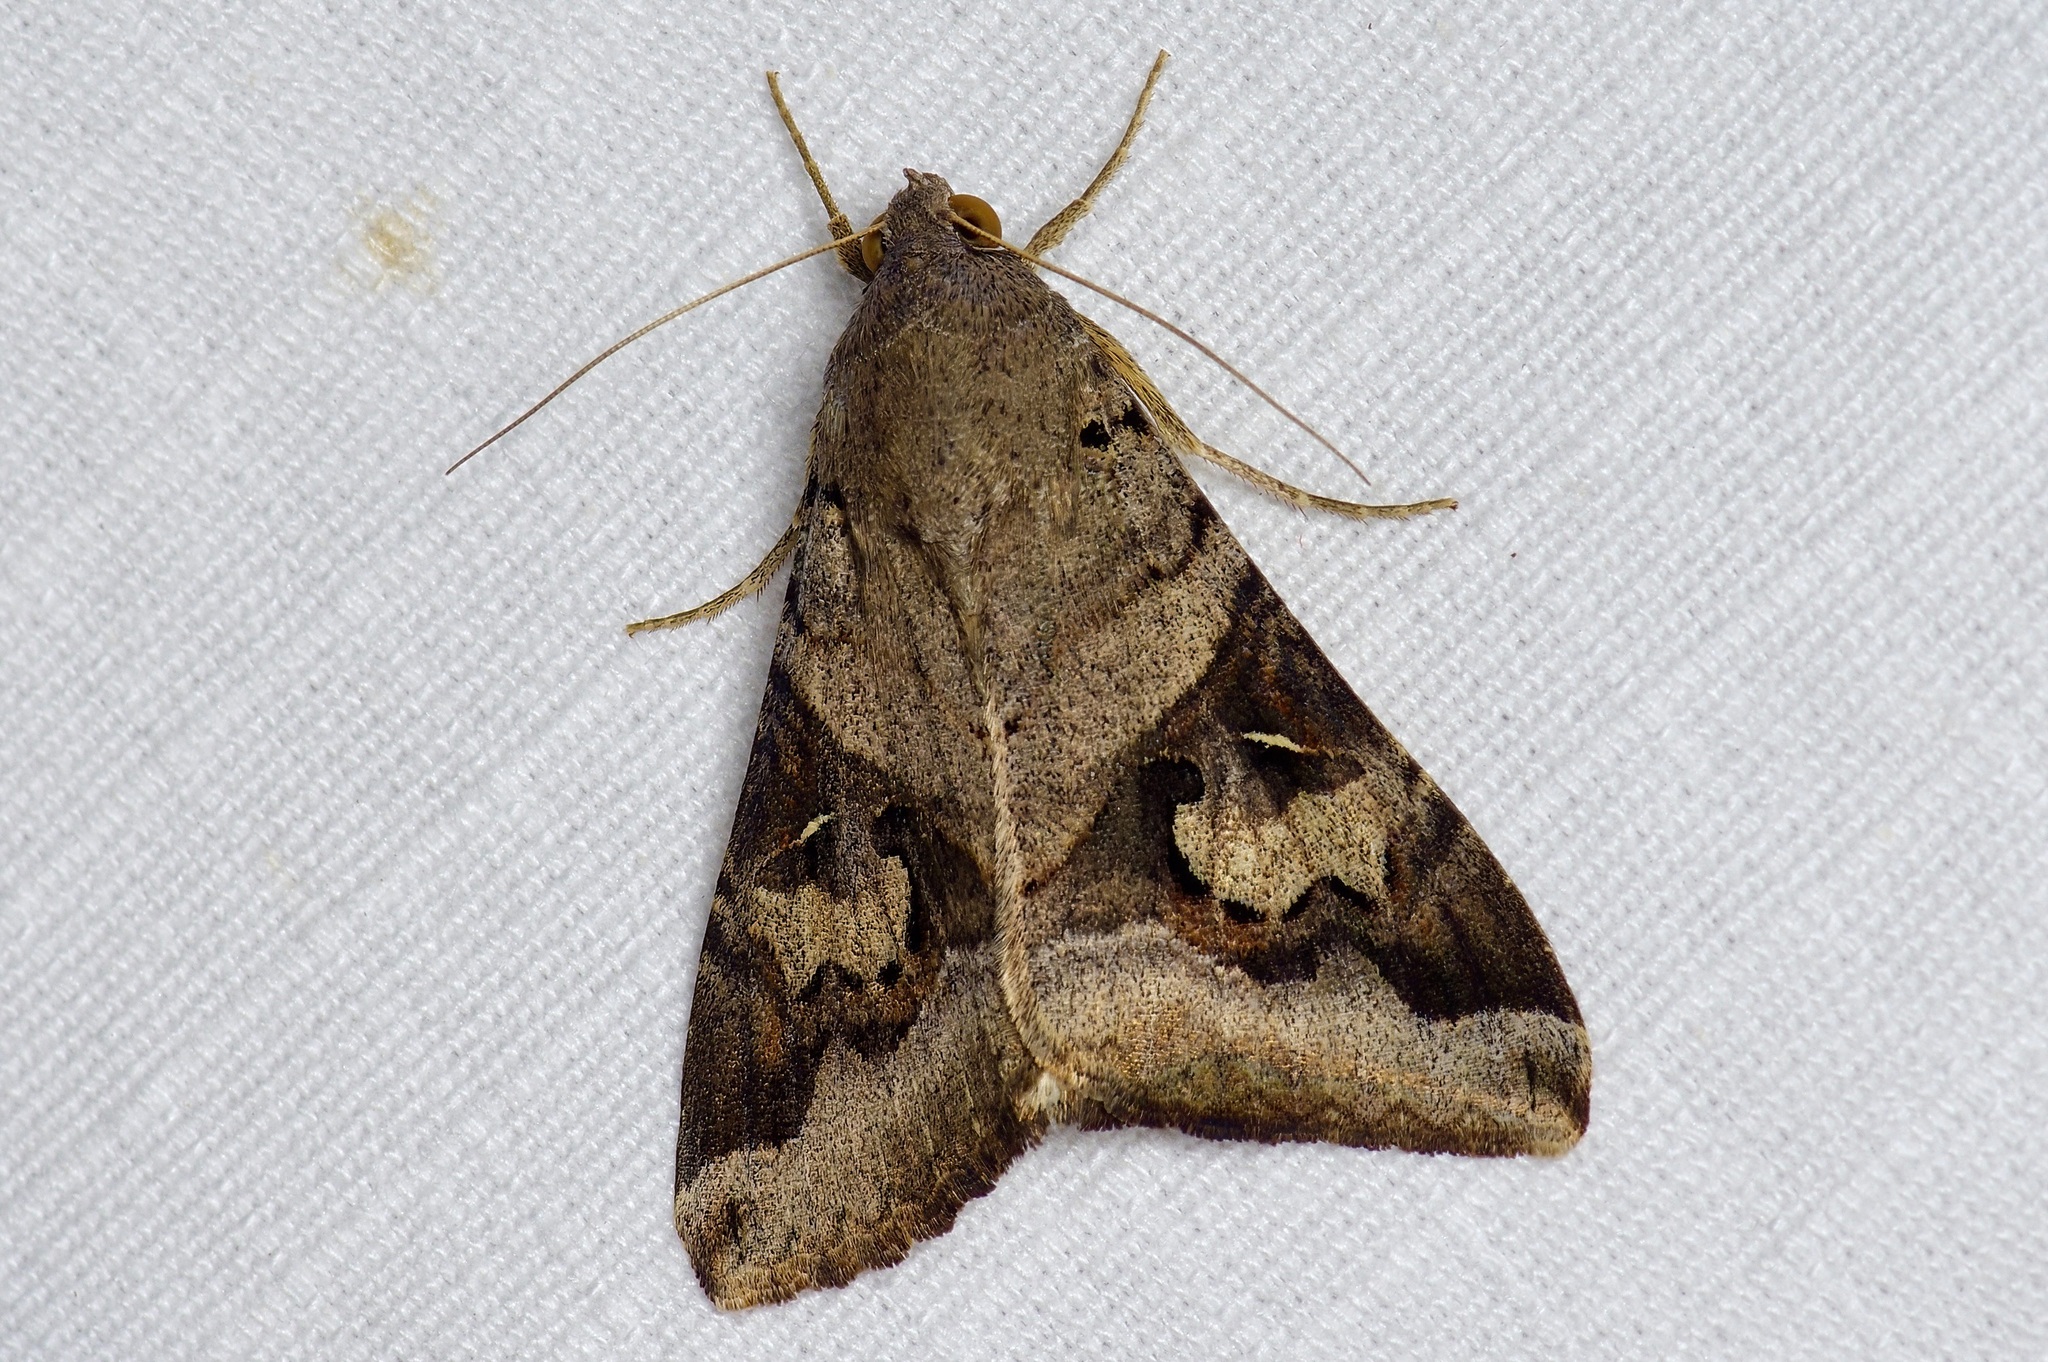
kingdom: Animalia
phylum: Arthropoda
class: Insecta
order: Lepidoptera
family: Erebidae
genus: Melipotis
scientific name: Melipotis indomita
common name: Moth
